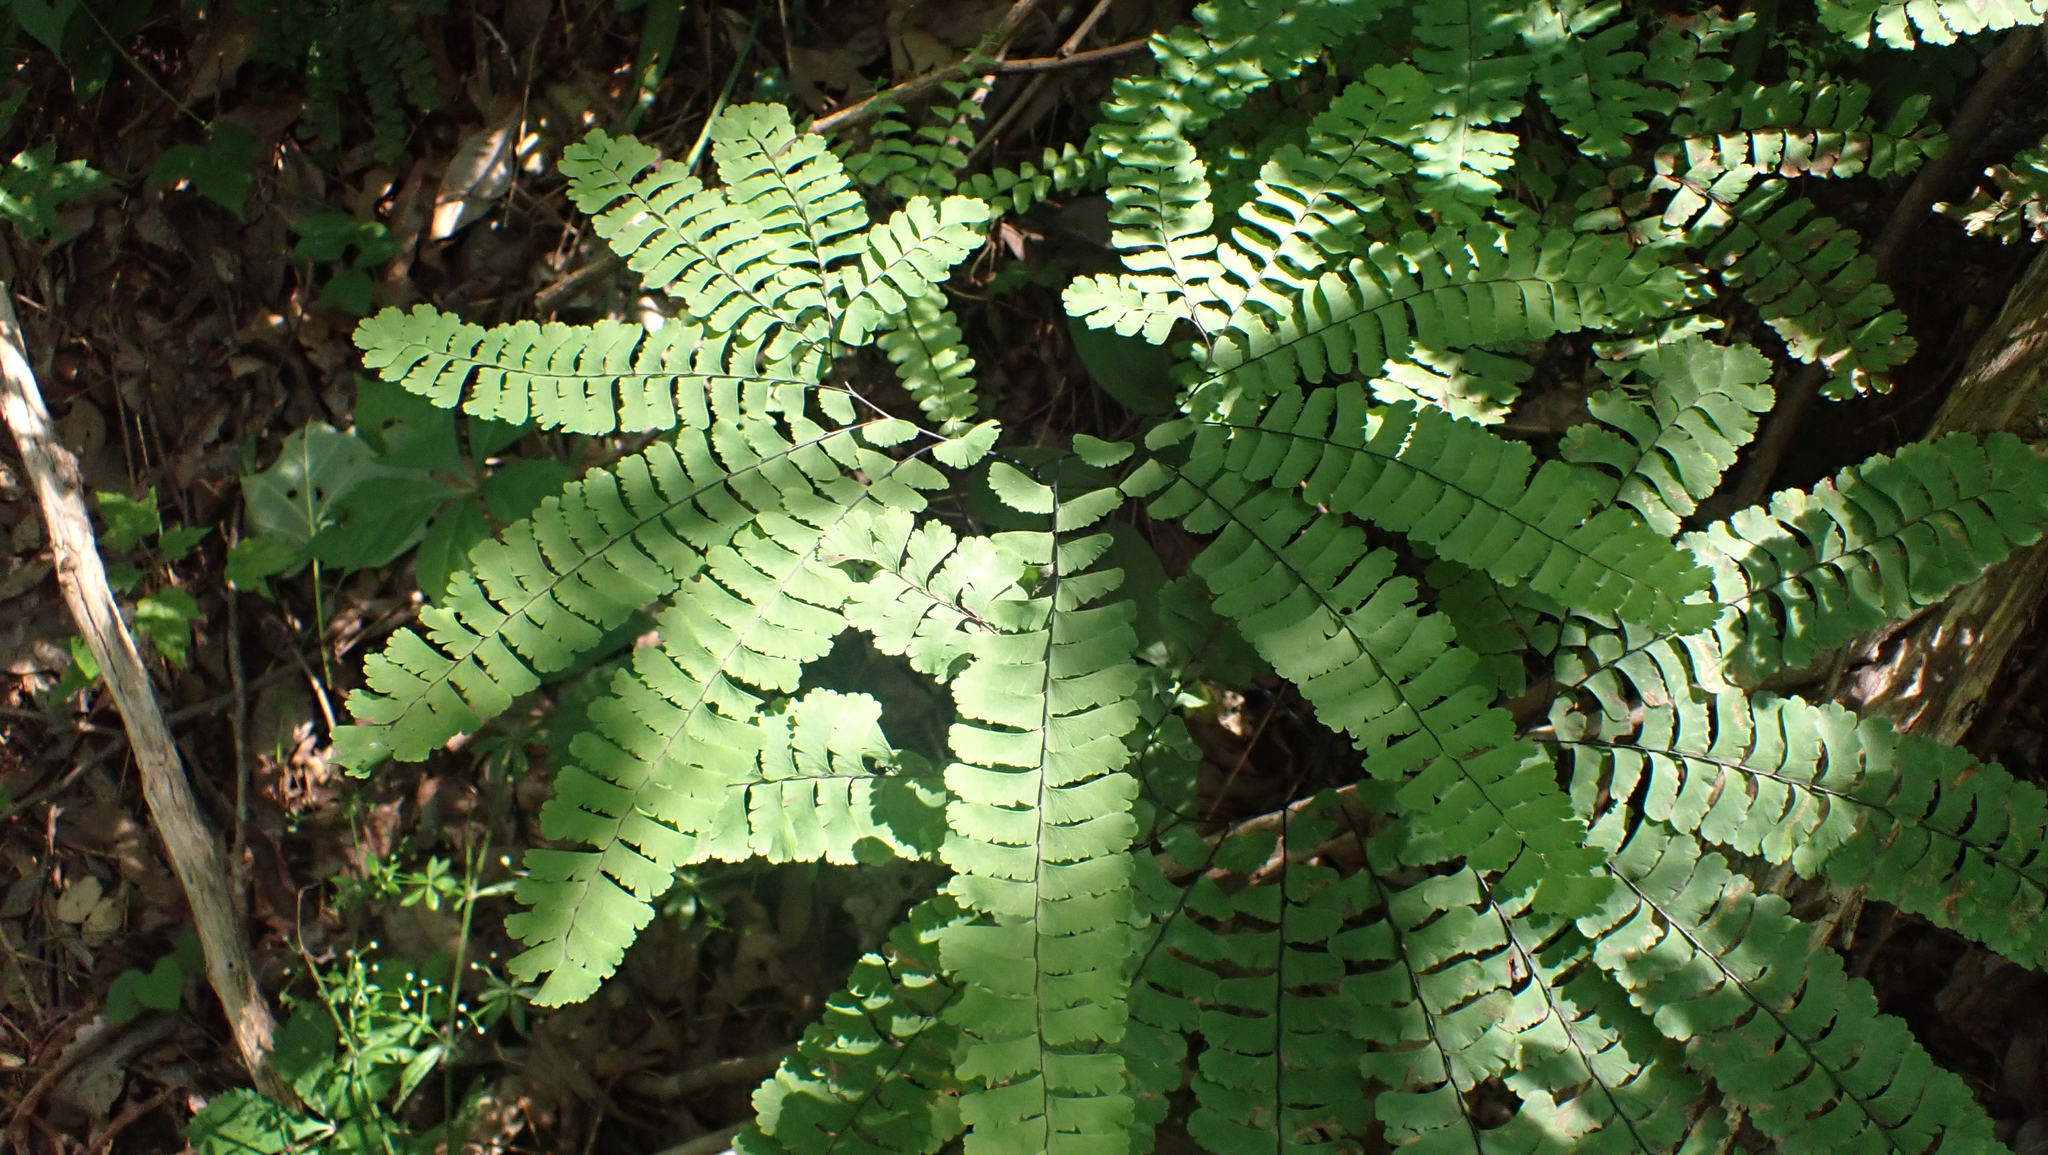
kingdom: Plantae
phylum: Tracheophyta
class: Polypodiopsida
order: Polypodiales
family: Pteridaceae
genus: Adiantum
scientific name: Adiantum pedatum
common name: Five-finger fern
